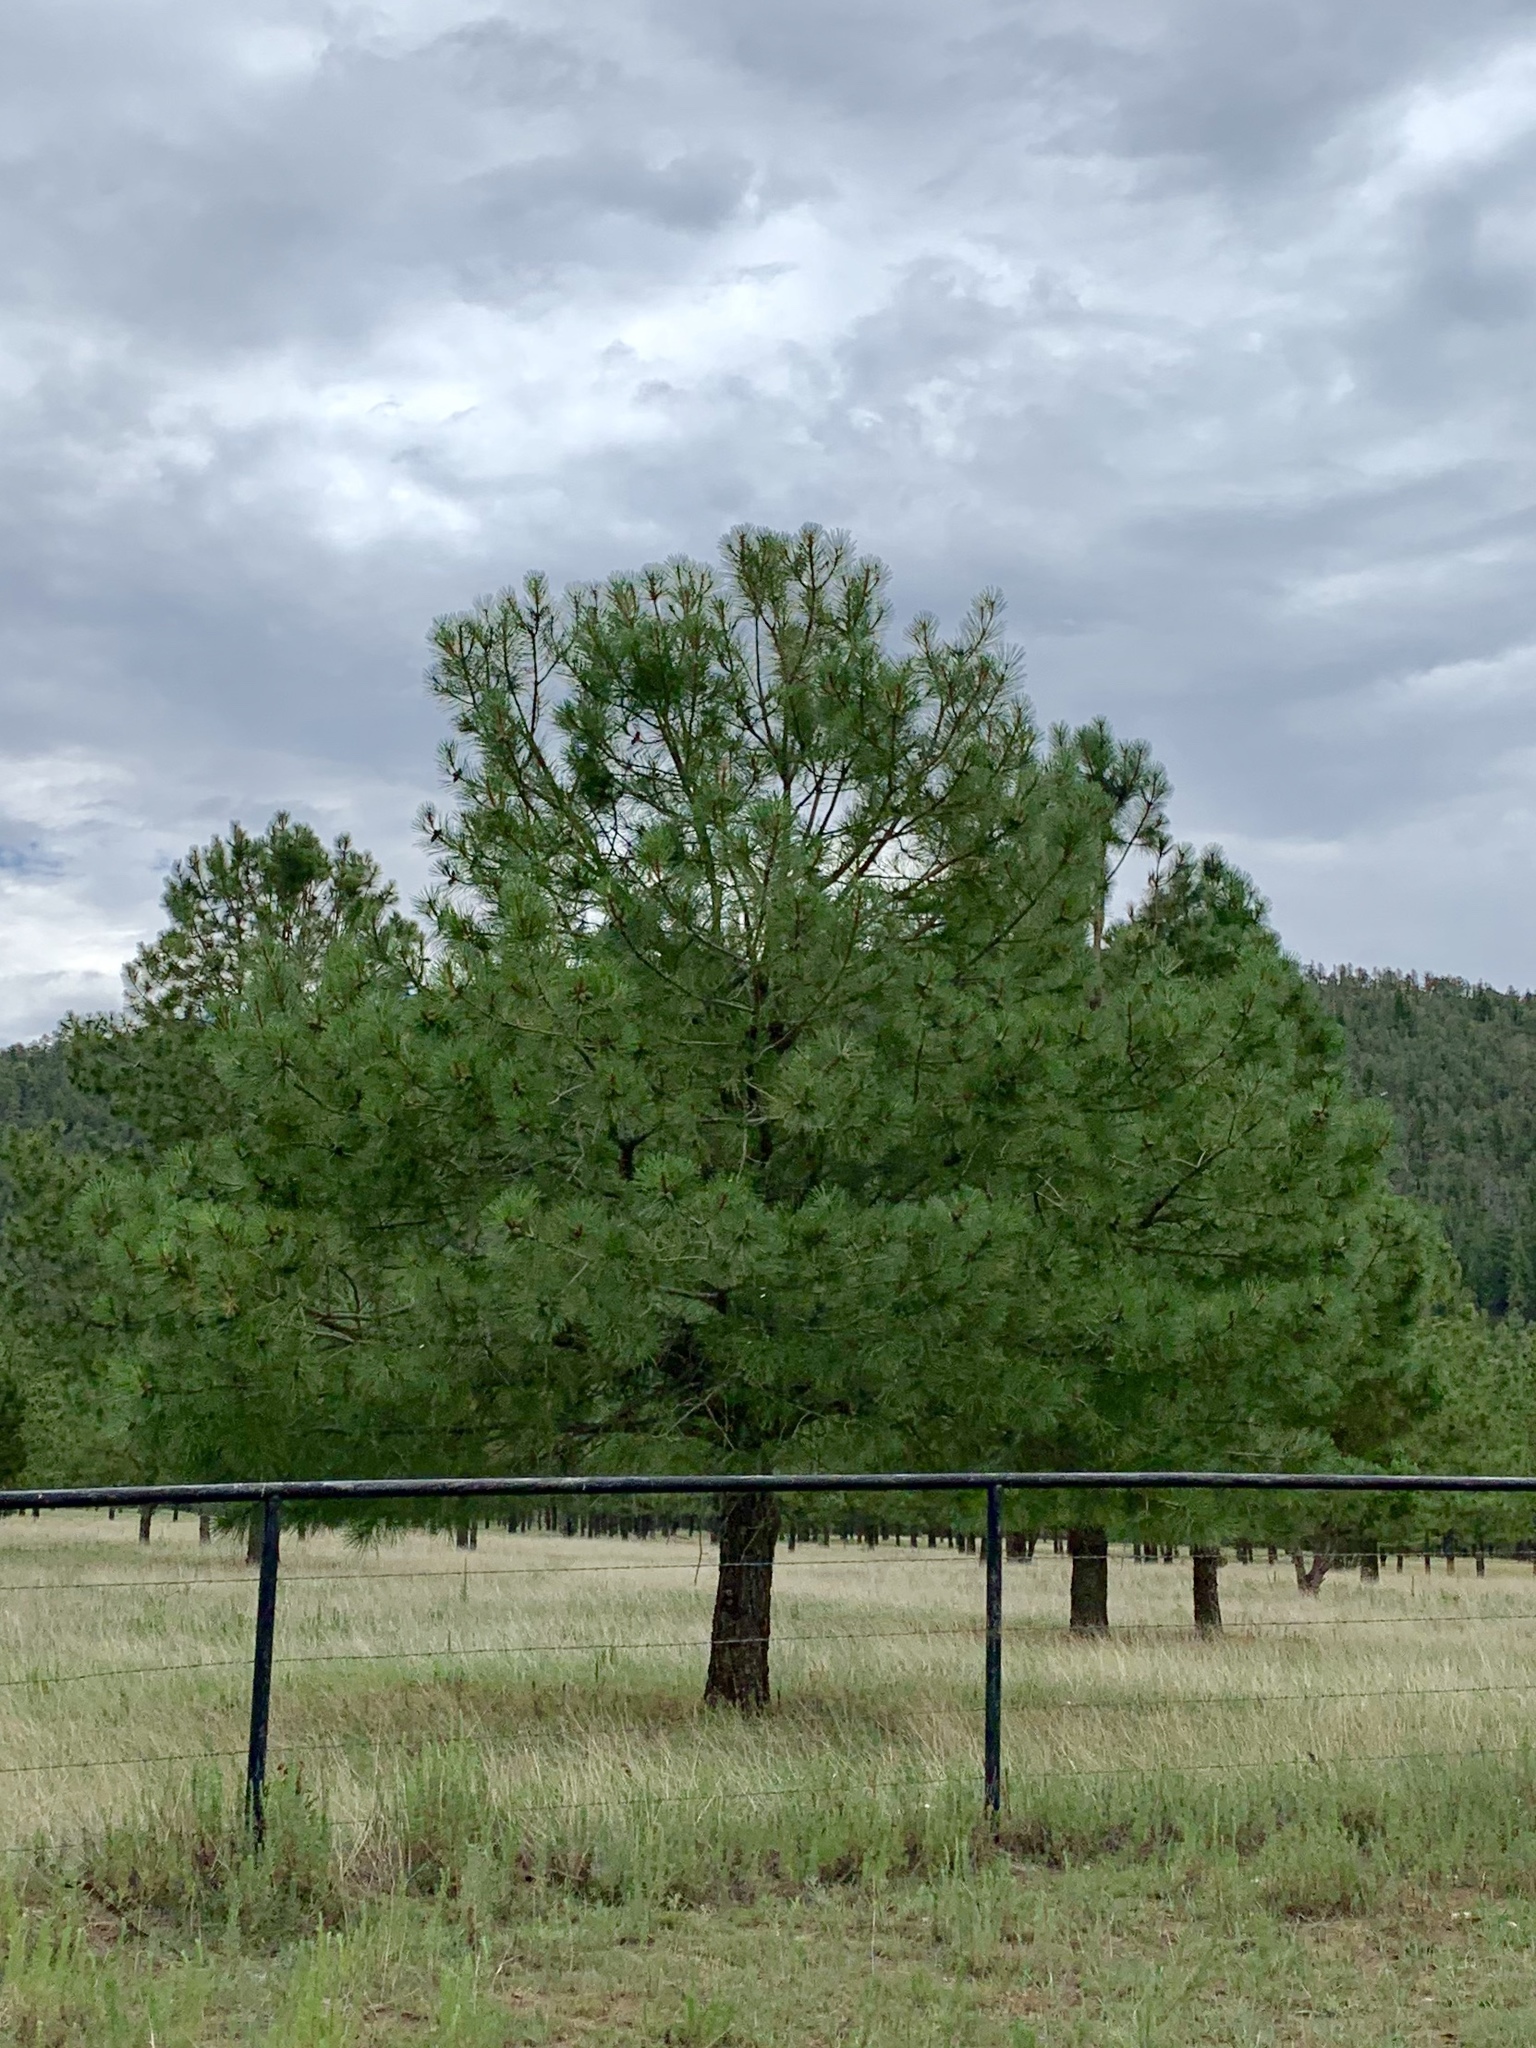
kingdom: Plantae
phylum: Tracheophyta
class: Pinopsida
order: Pinales
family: Pinaceae
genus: Pinus
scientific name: Pinus ponderosa
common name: Western yellow-pine
